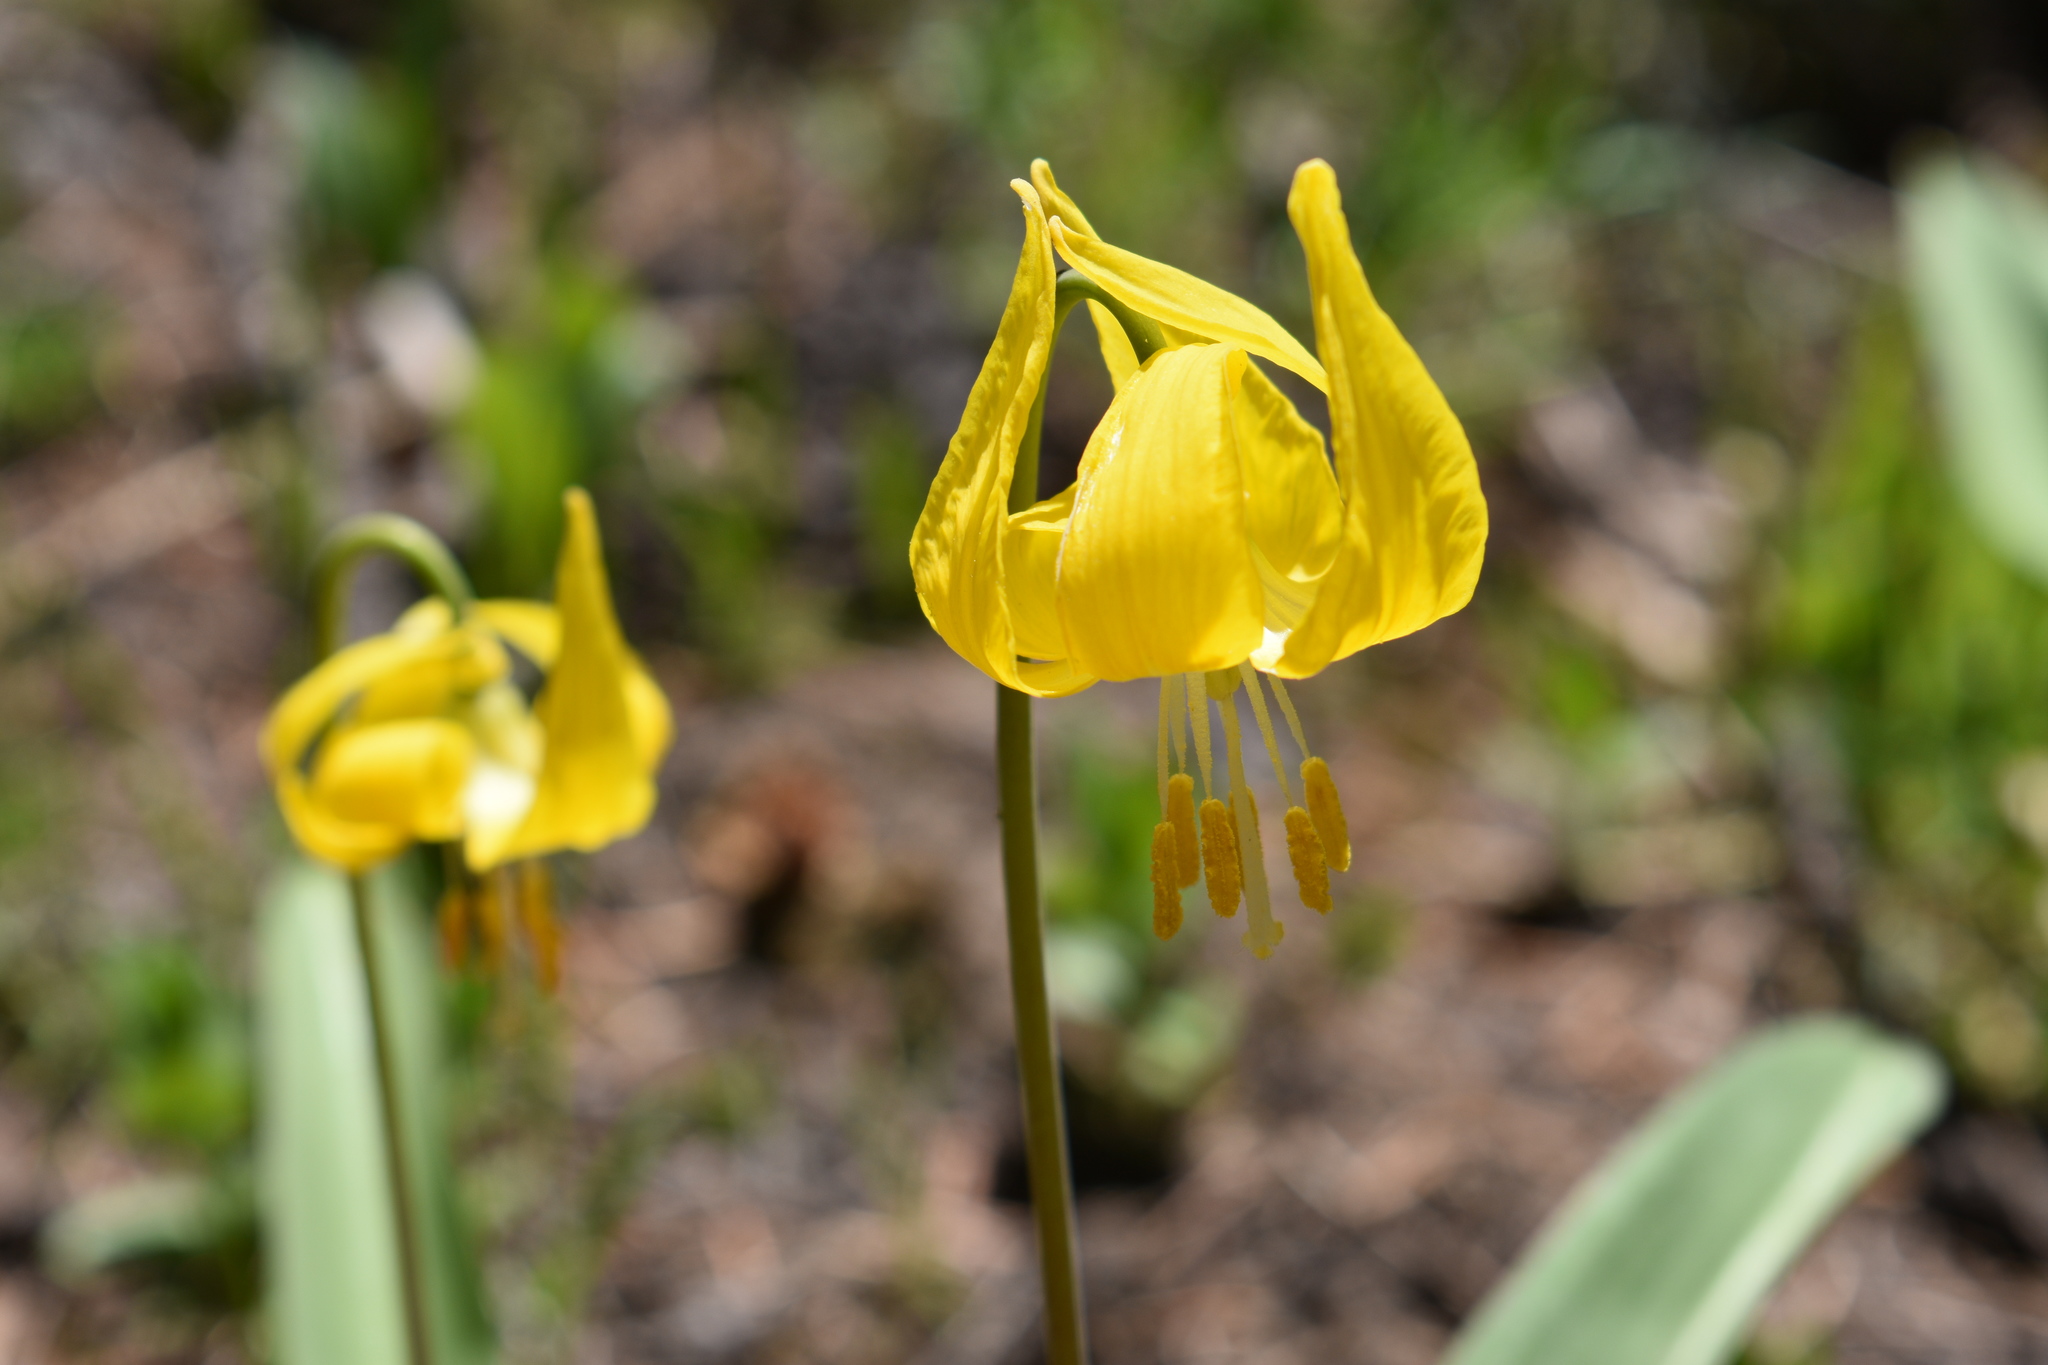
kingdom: Plantae
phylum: Tracheophyta
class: Liliopsida
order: Liliales
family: Liliaceae
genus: Erythronium
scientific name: Erythronium grandiflorum
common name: Avalanche-lily
